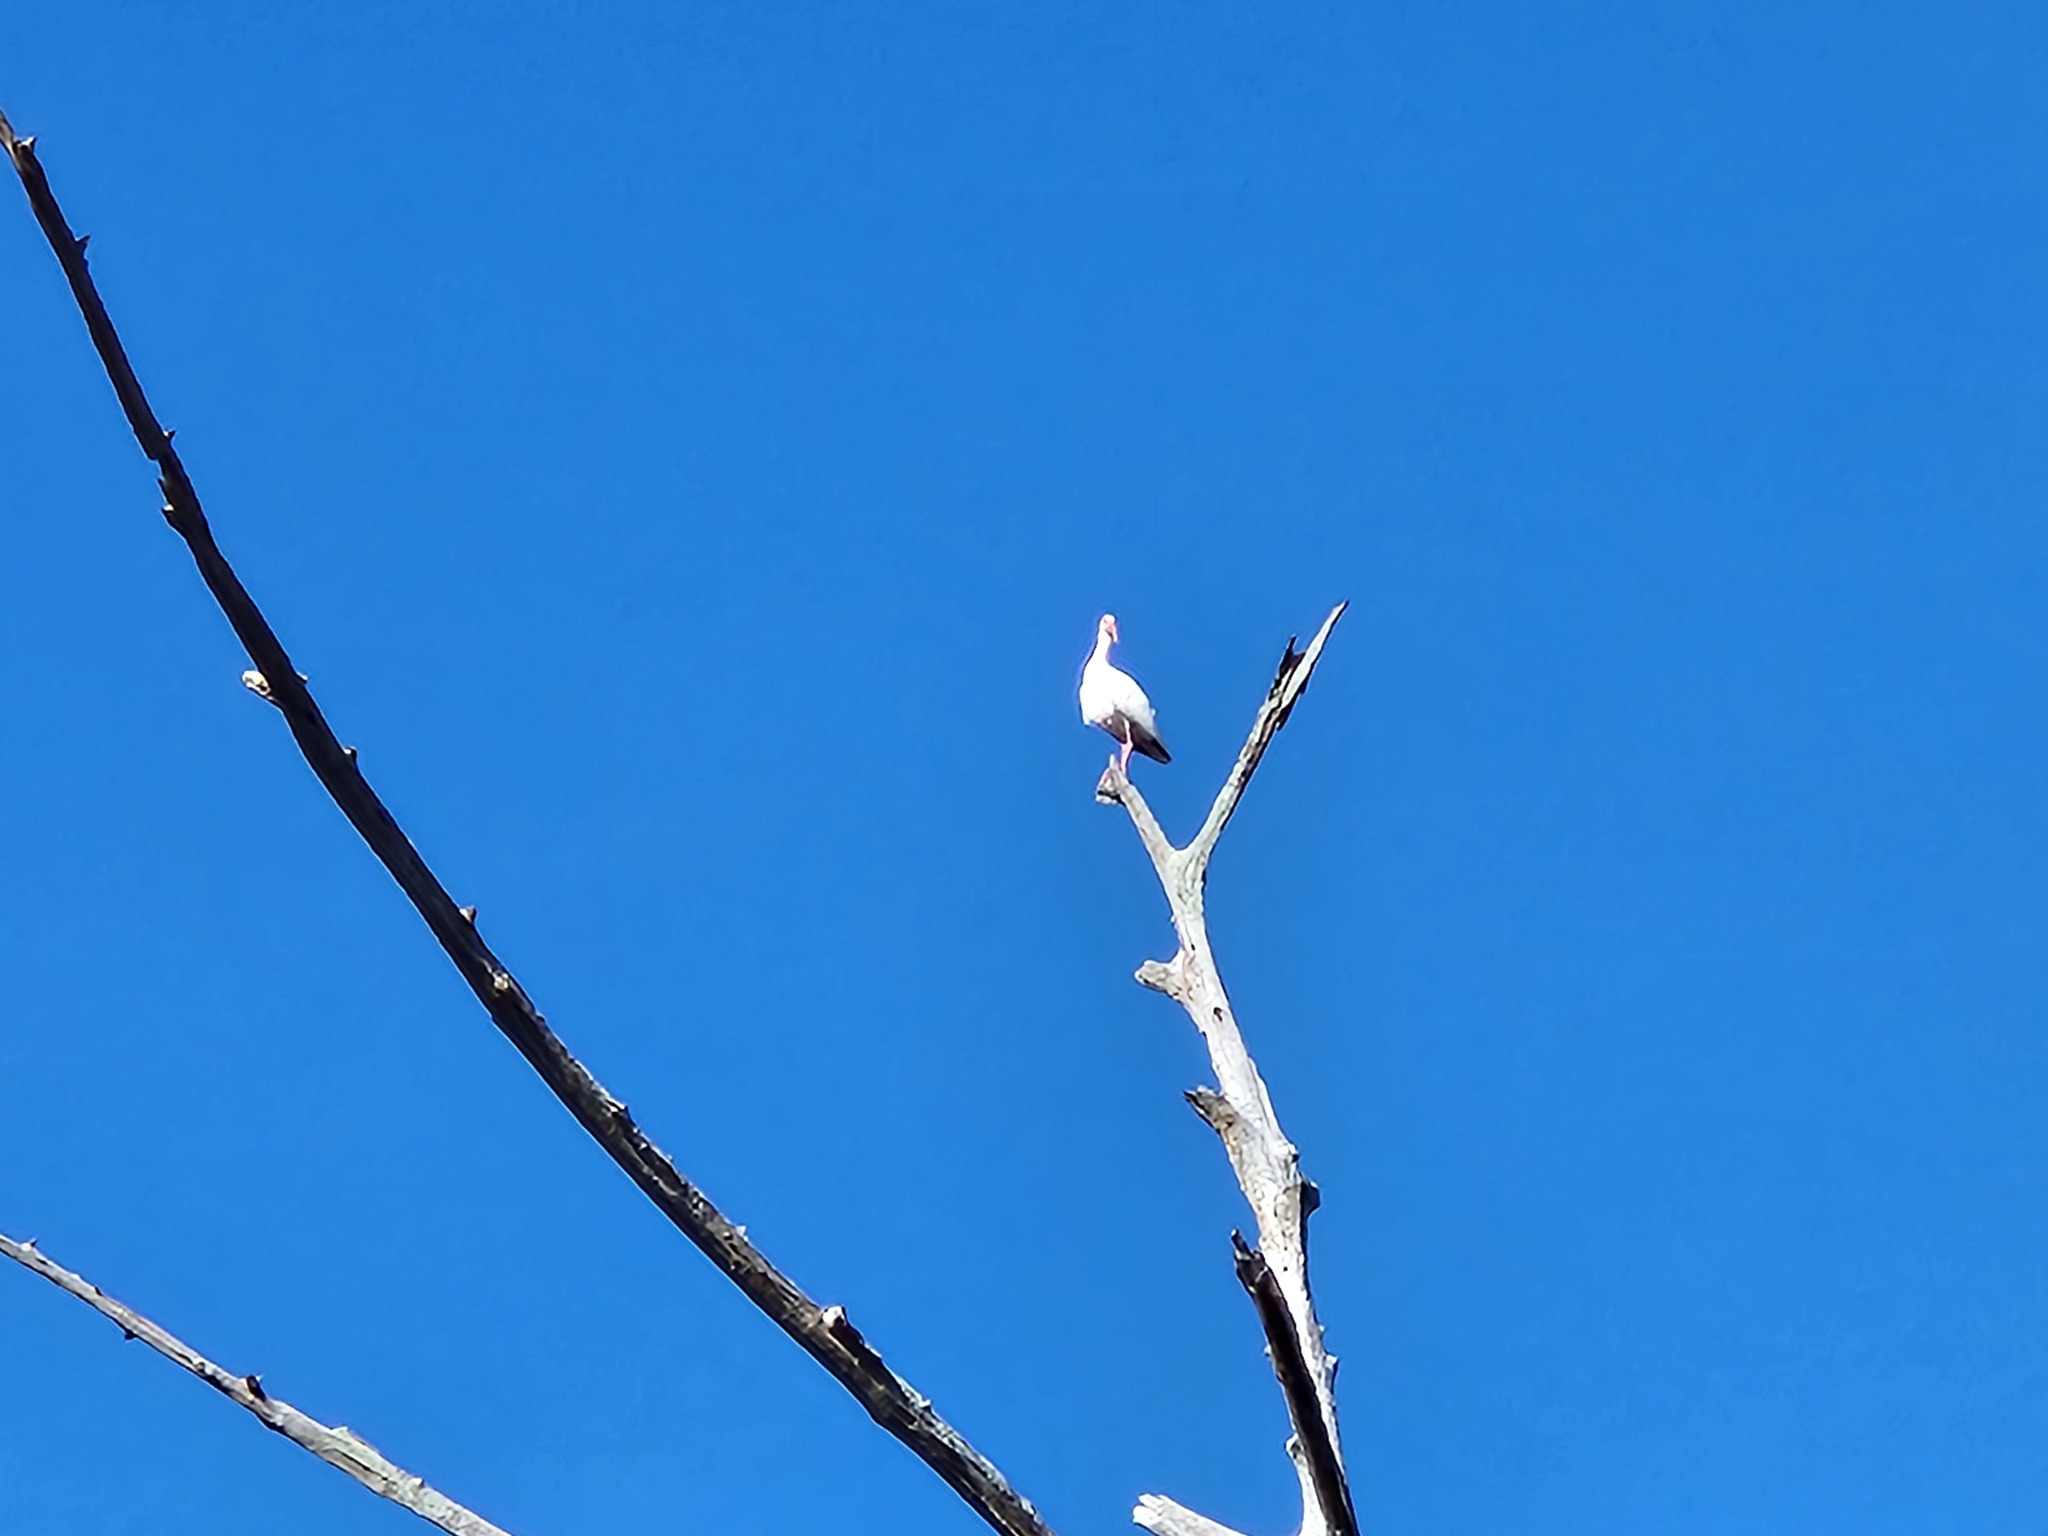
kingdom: Animalia
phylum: Chordata
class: Aves
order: Pelecaniformes
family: Threskiornithidae
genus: Eudocimus
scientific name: Eudocimus albus
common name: White ibis
